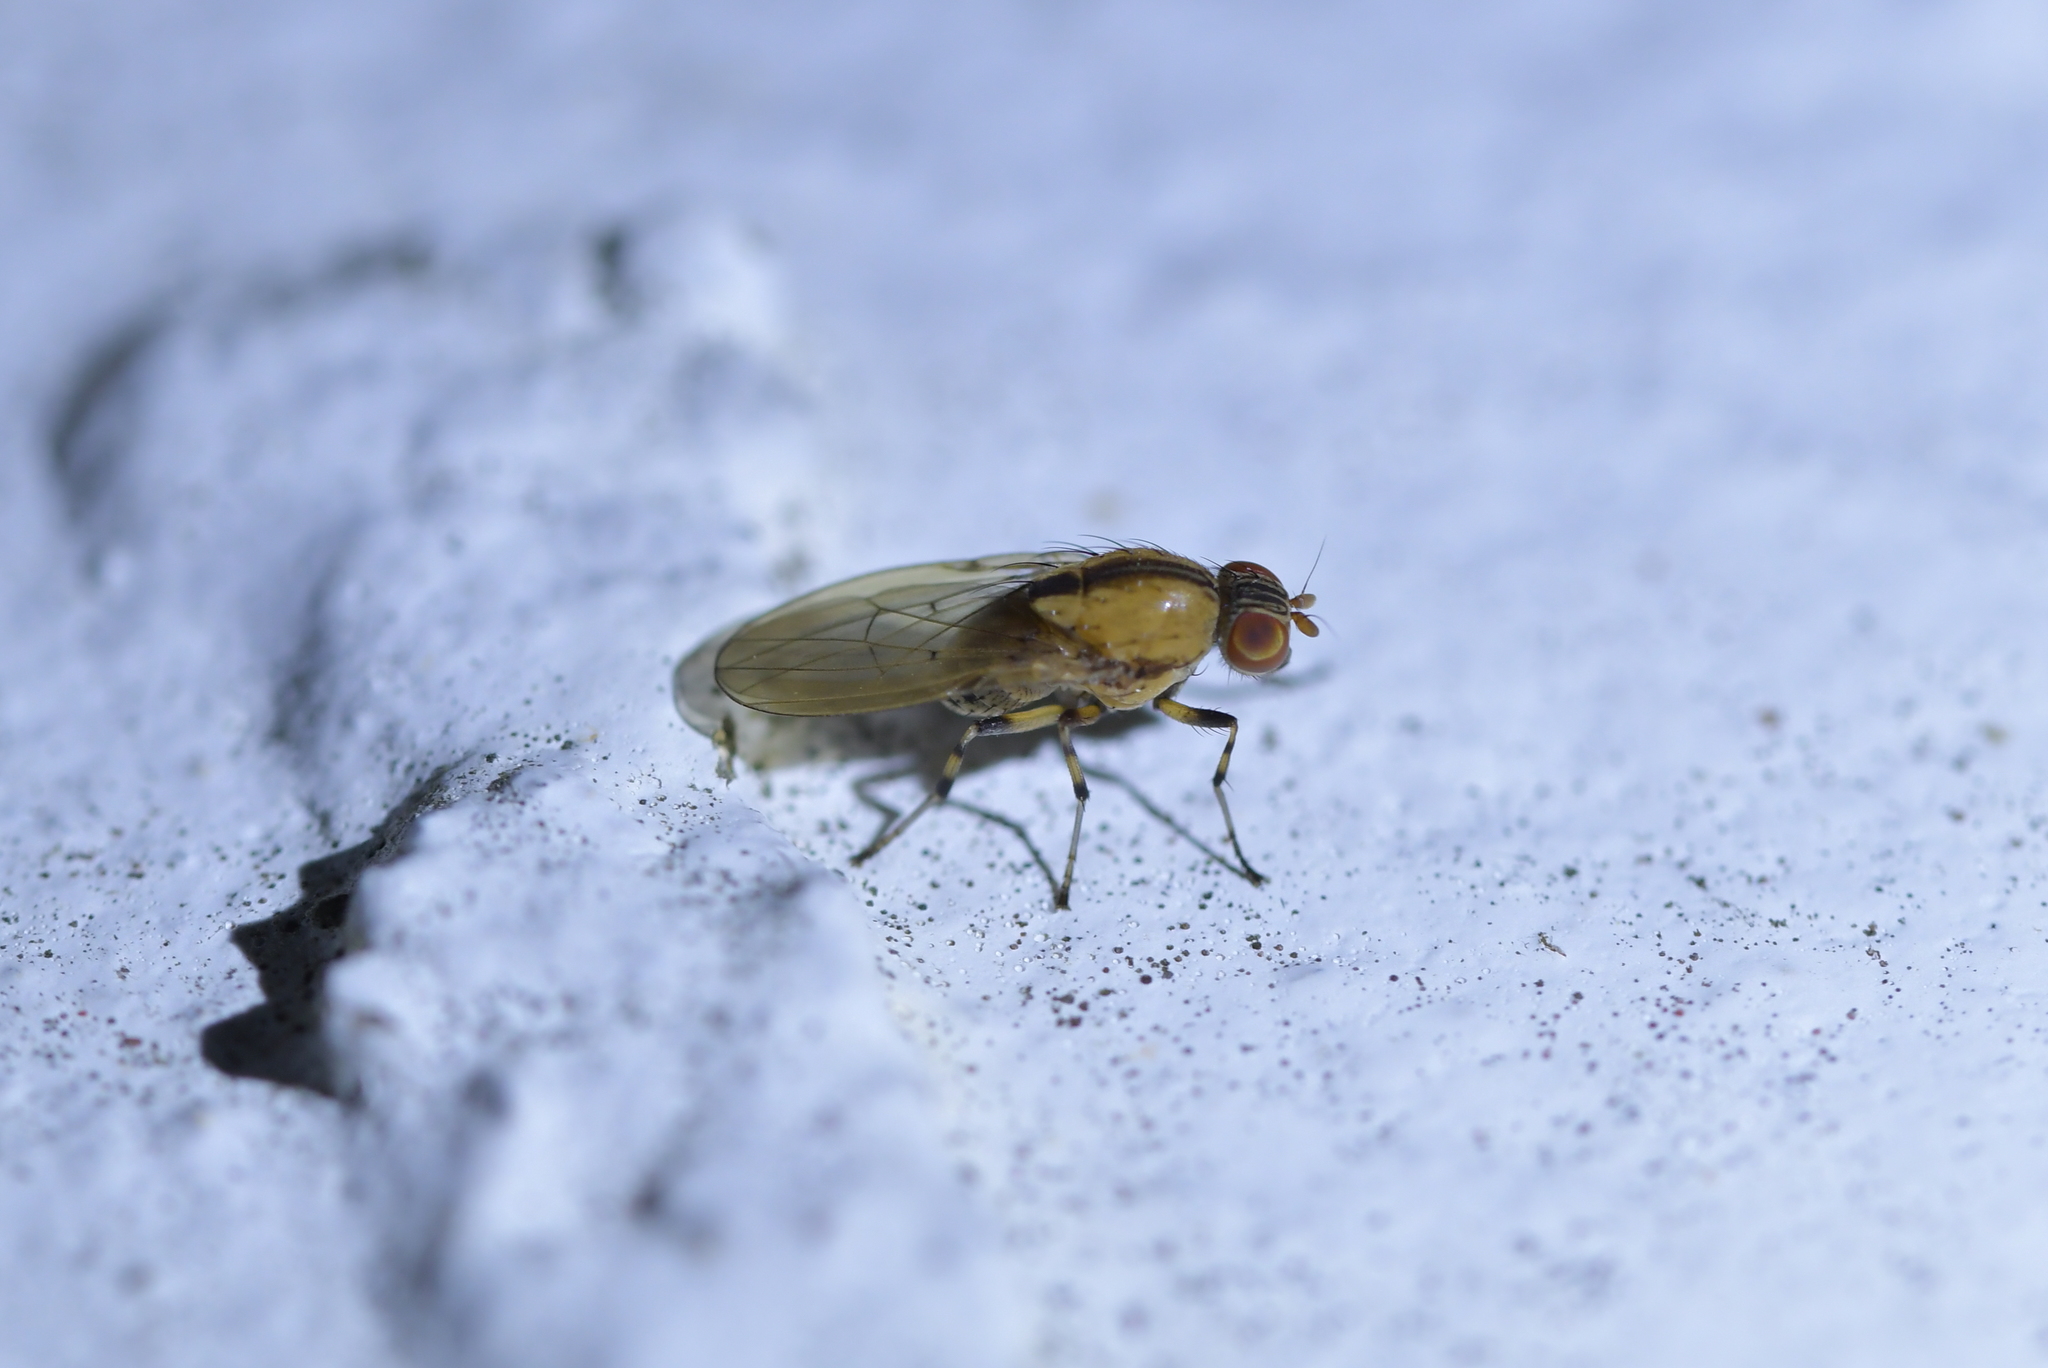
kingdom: Animalia
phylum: Arthropoda
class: Insecta
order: Diptera
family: Lauxaniidae
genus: Sapromyza
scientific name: Sapromyza neozelandica
